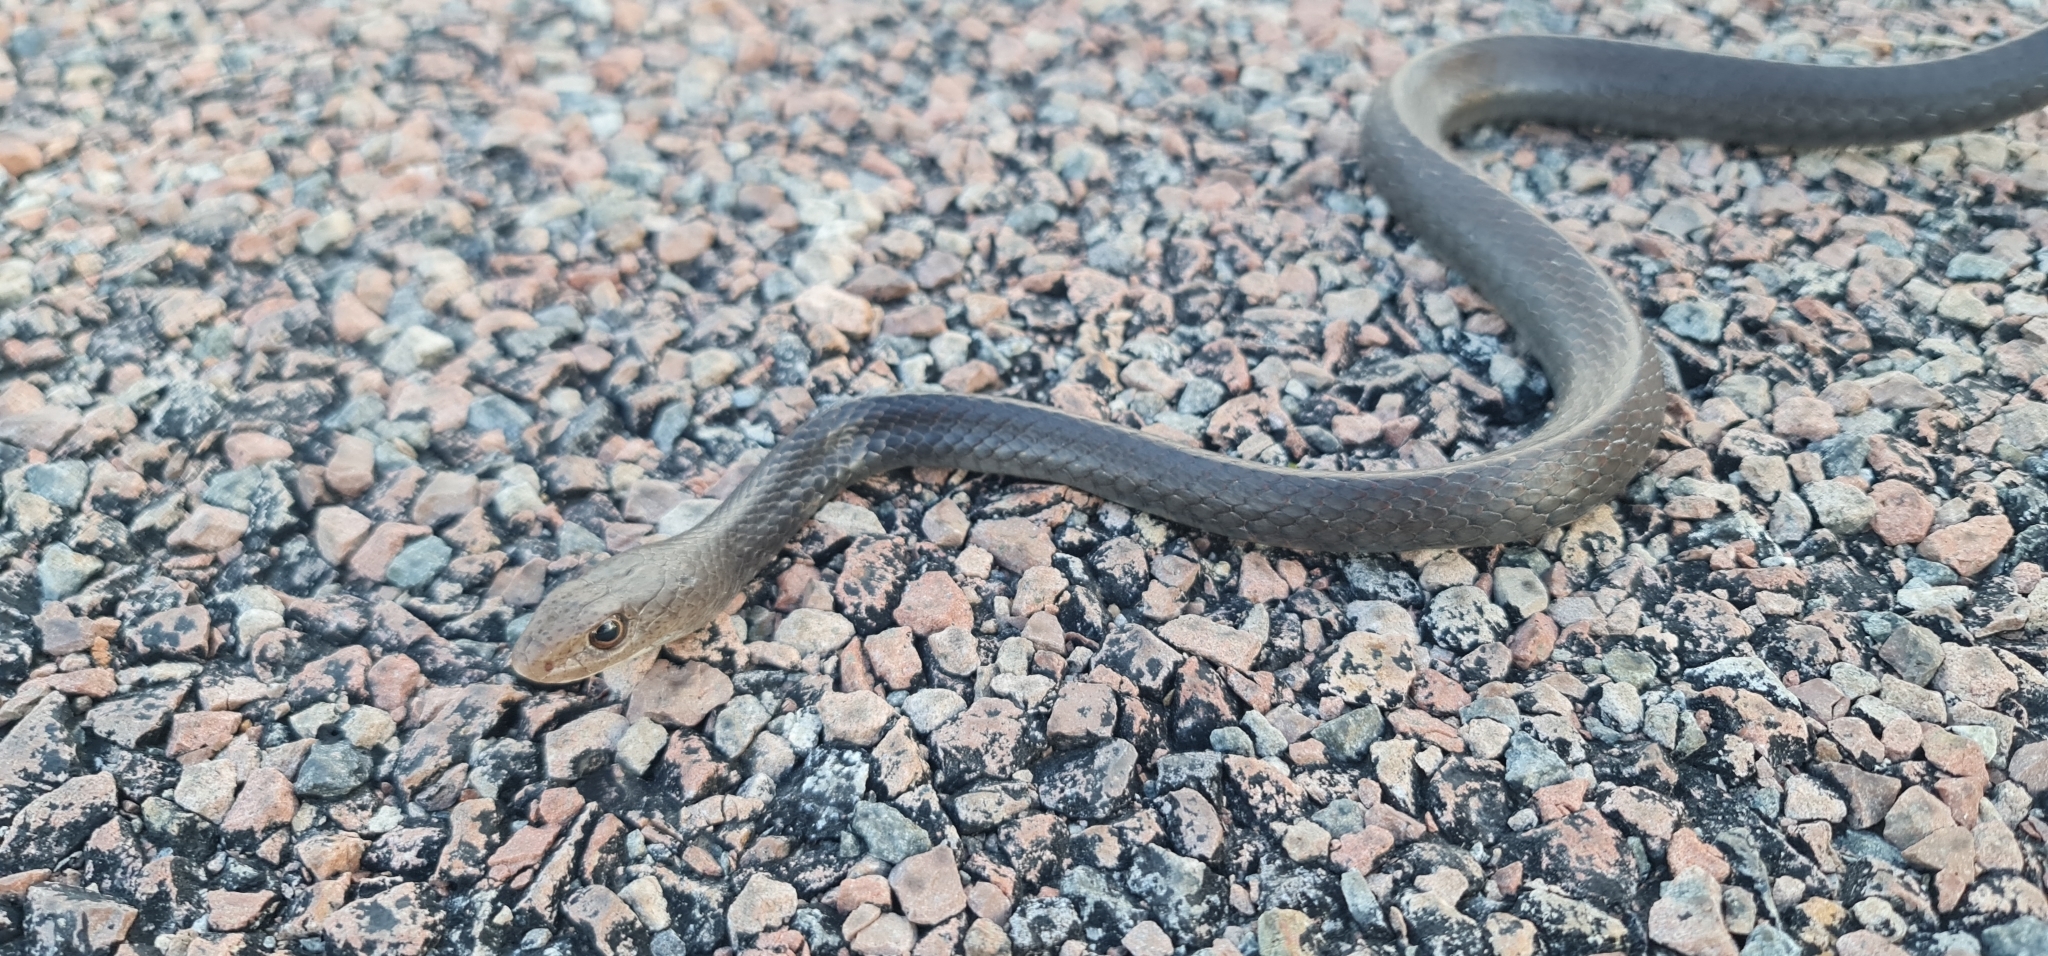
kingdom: Animalia
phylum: Chordata
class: Squamata
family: Elapidae
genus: Demansia
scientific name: Demansia papuensis
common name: Papuan whip snake
